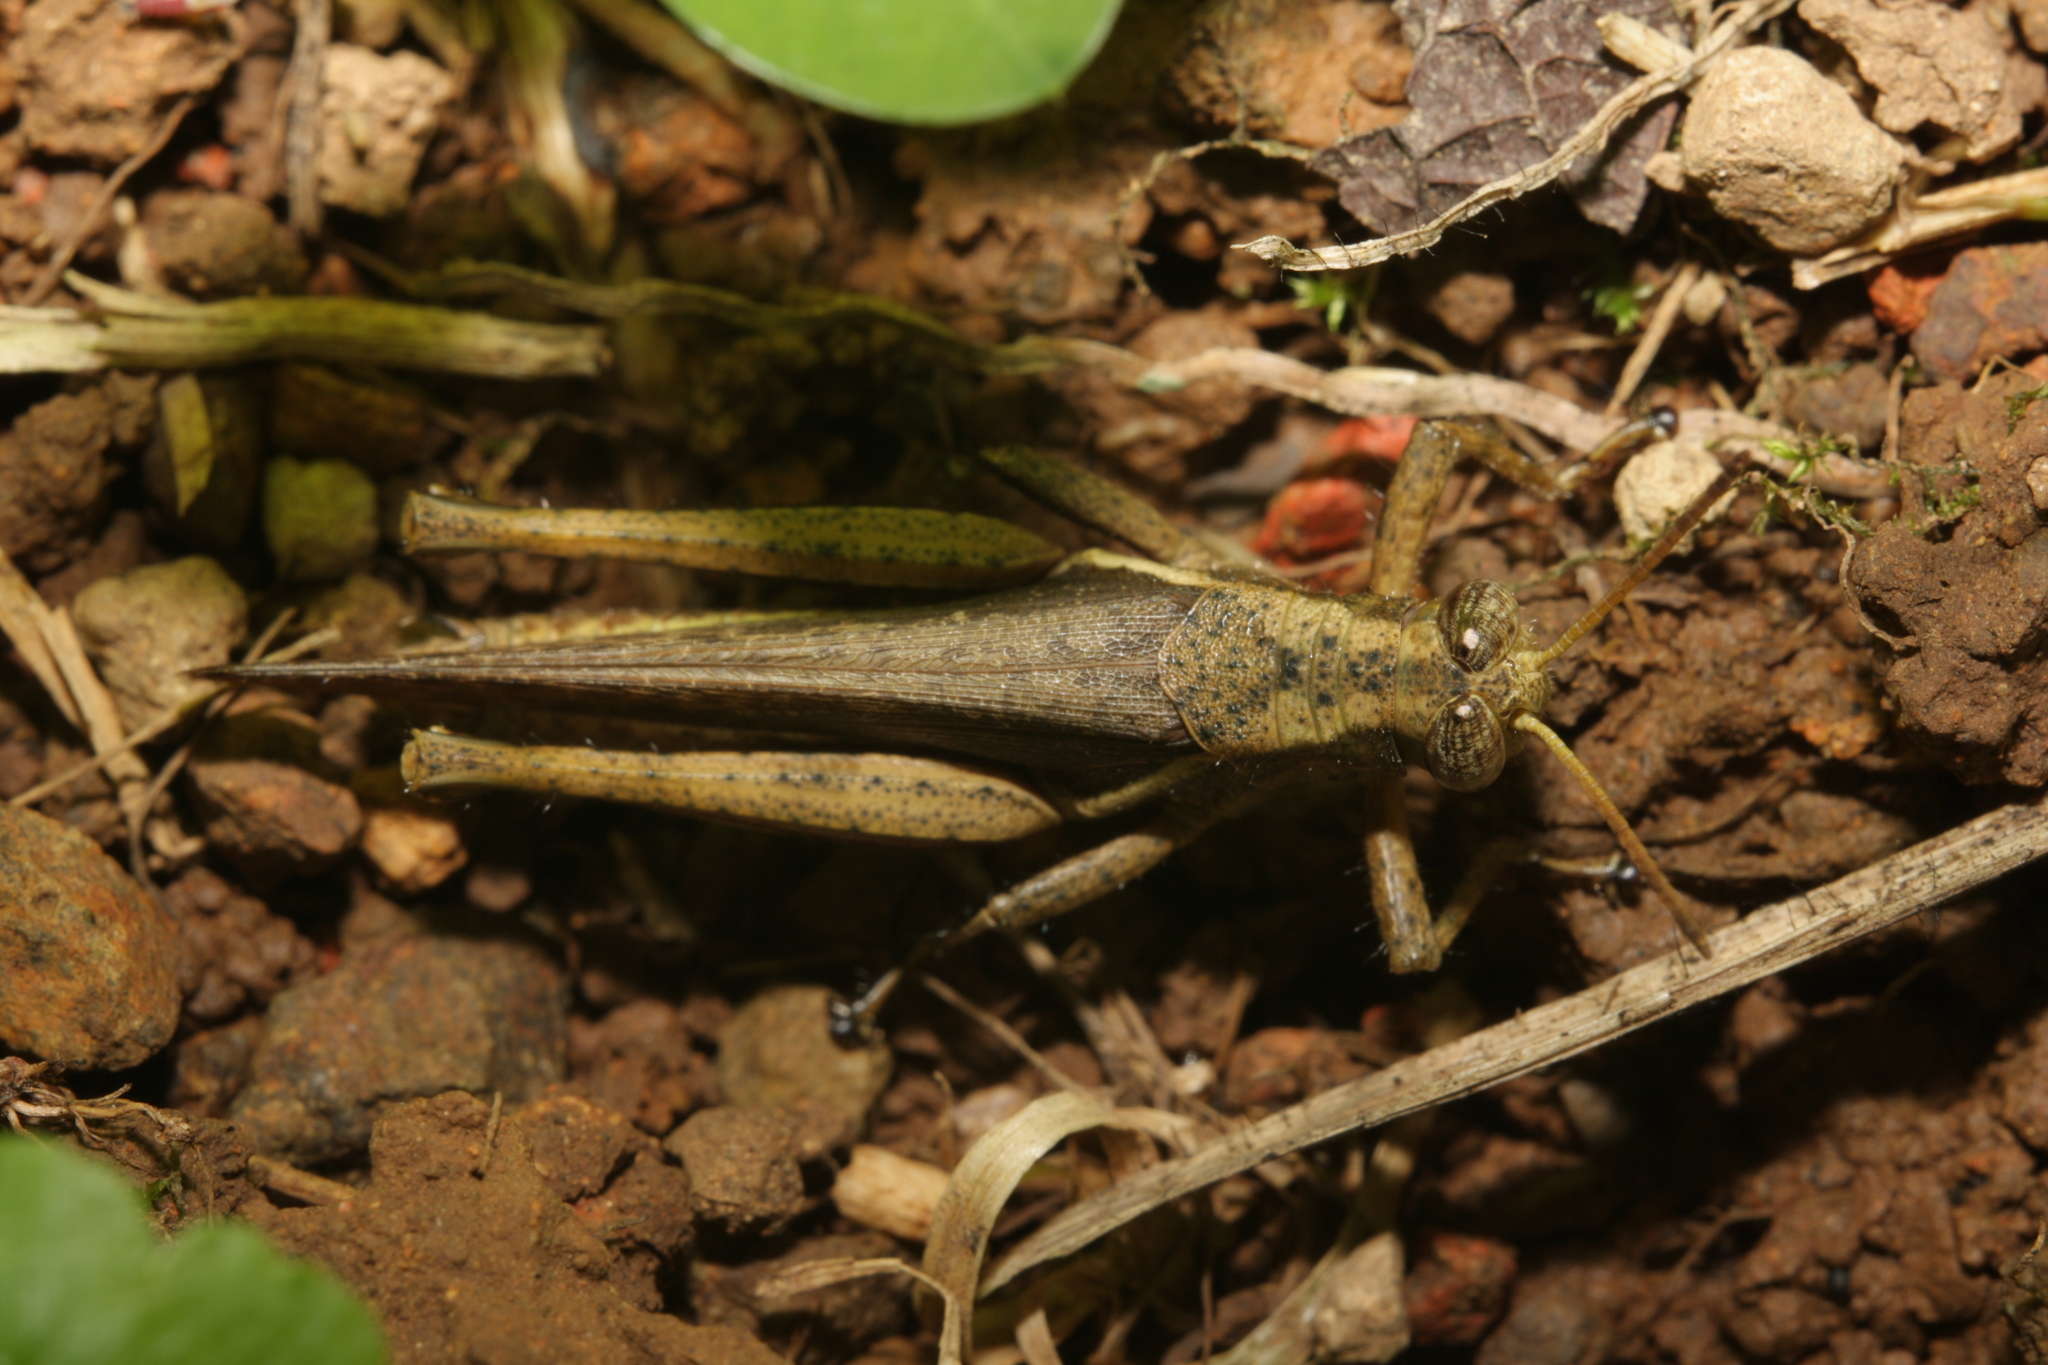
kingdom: Animalia
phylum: Arthropoda
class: Insecta
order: Orthoptera
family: Acrididae
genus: Abracris
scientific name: Abracris flavolineata
